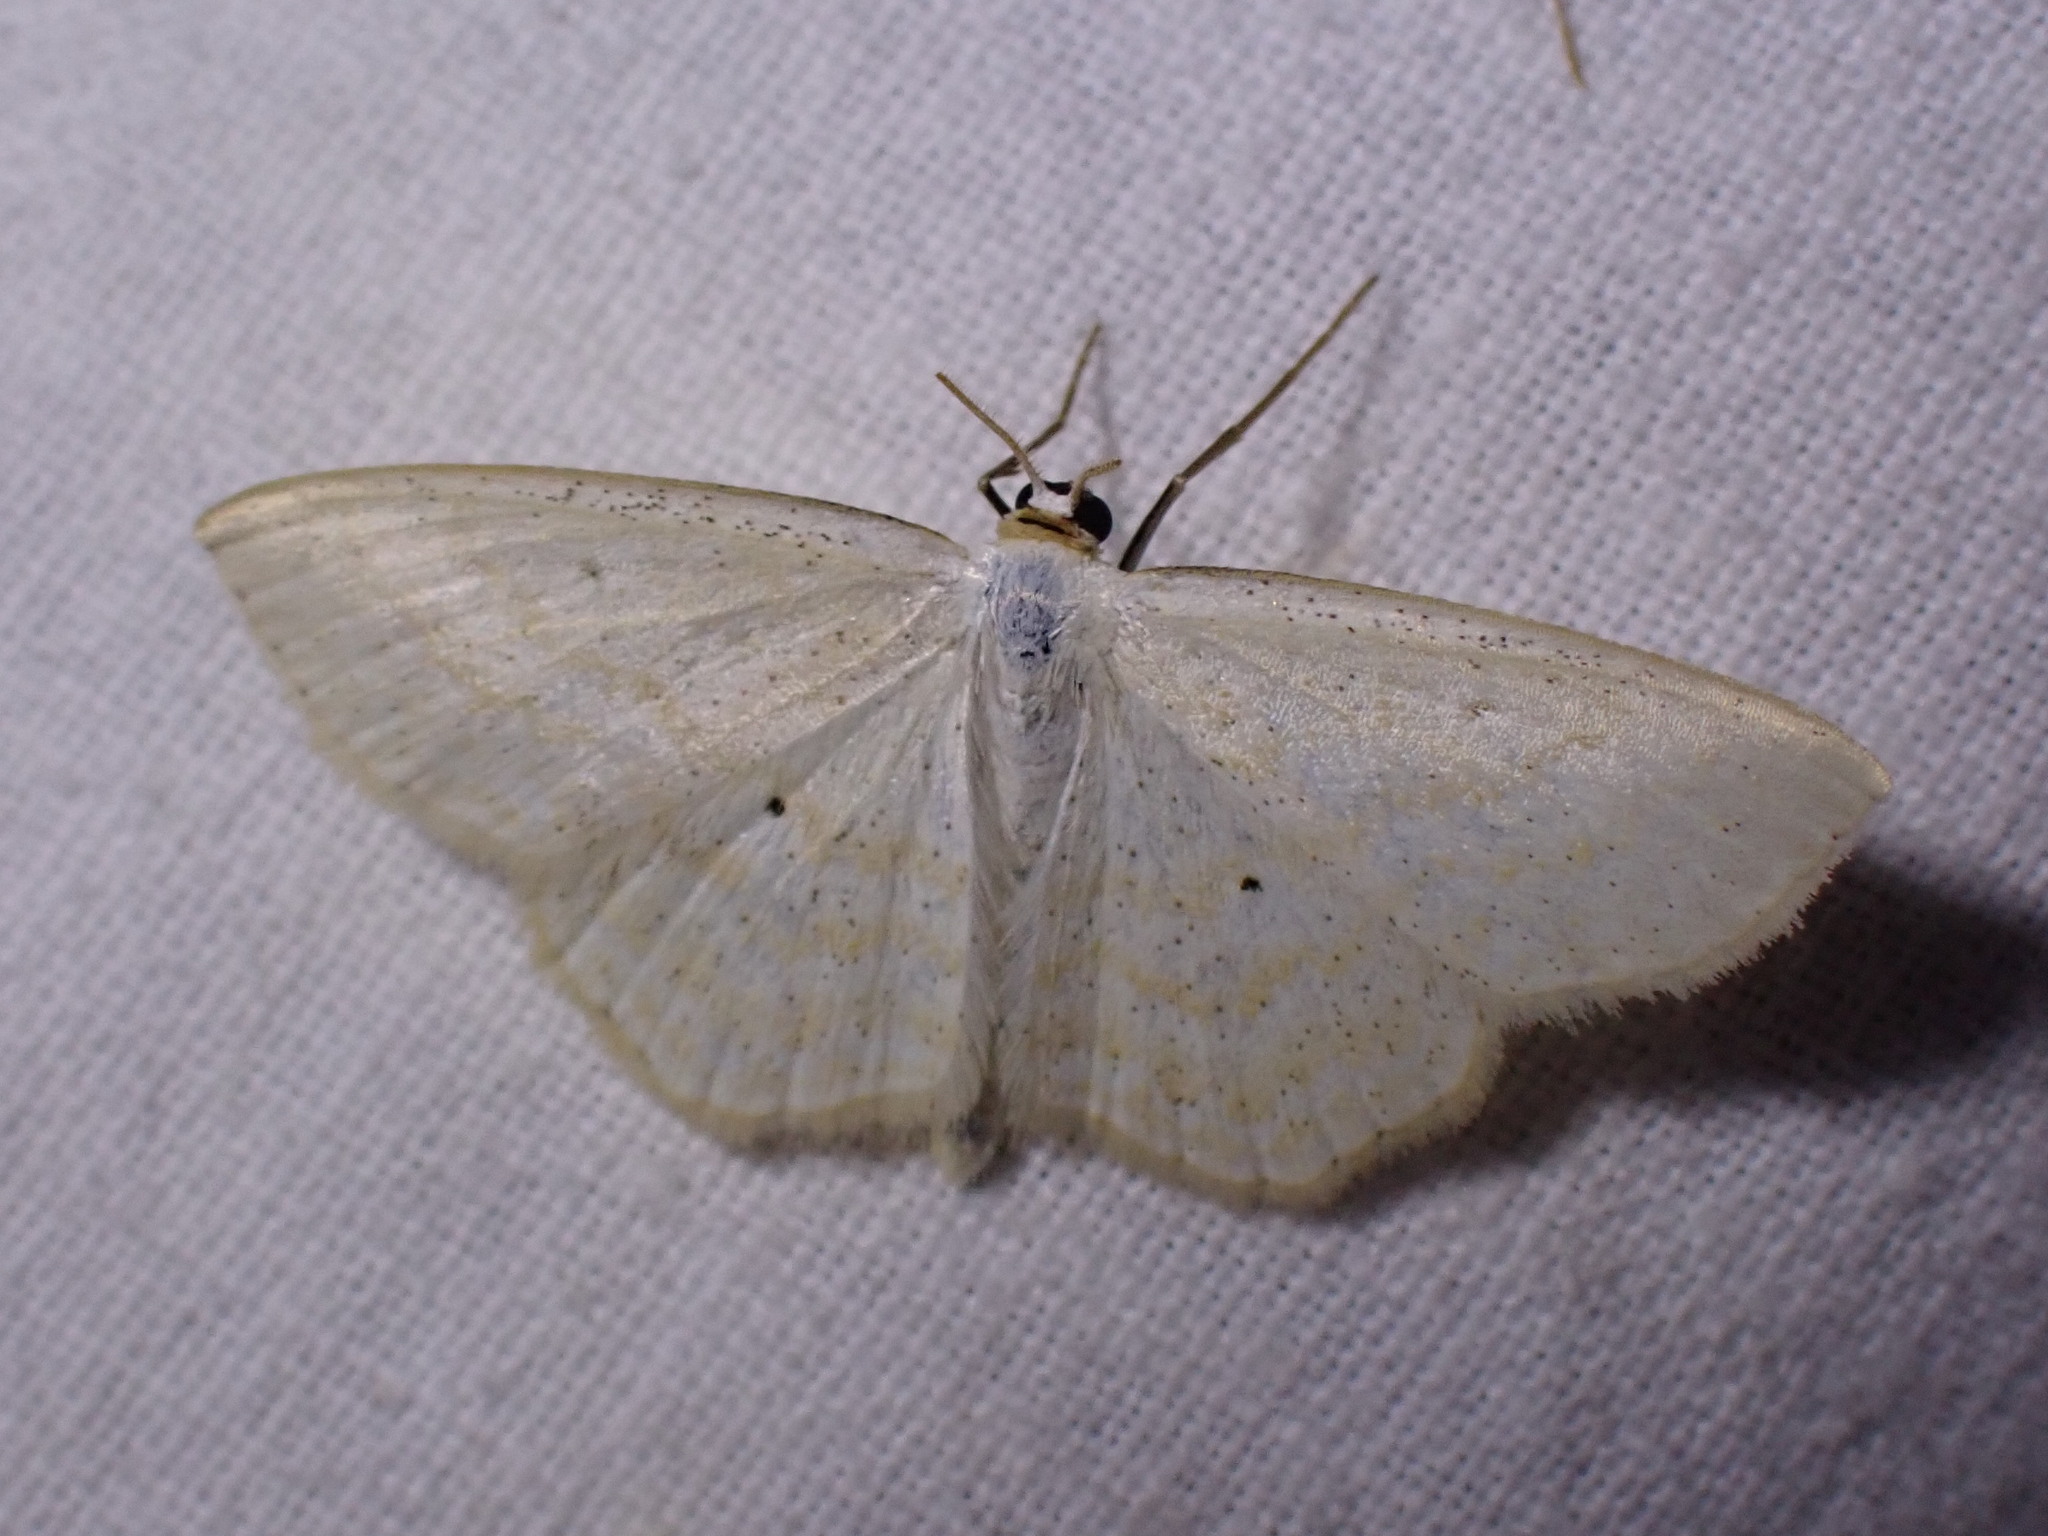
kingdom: Animalia
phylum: Arthropoda
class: Insecta
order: Lepidoptera
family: Geometridae
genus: Scopula
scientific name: Scopula immutata
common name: Lesser cream wave
